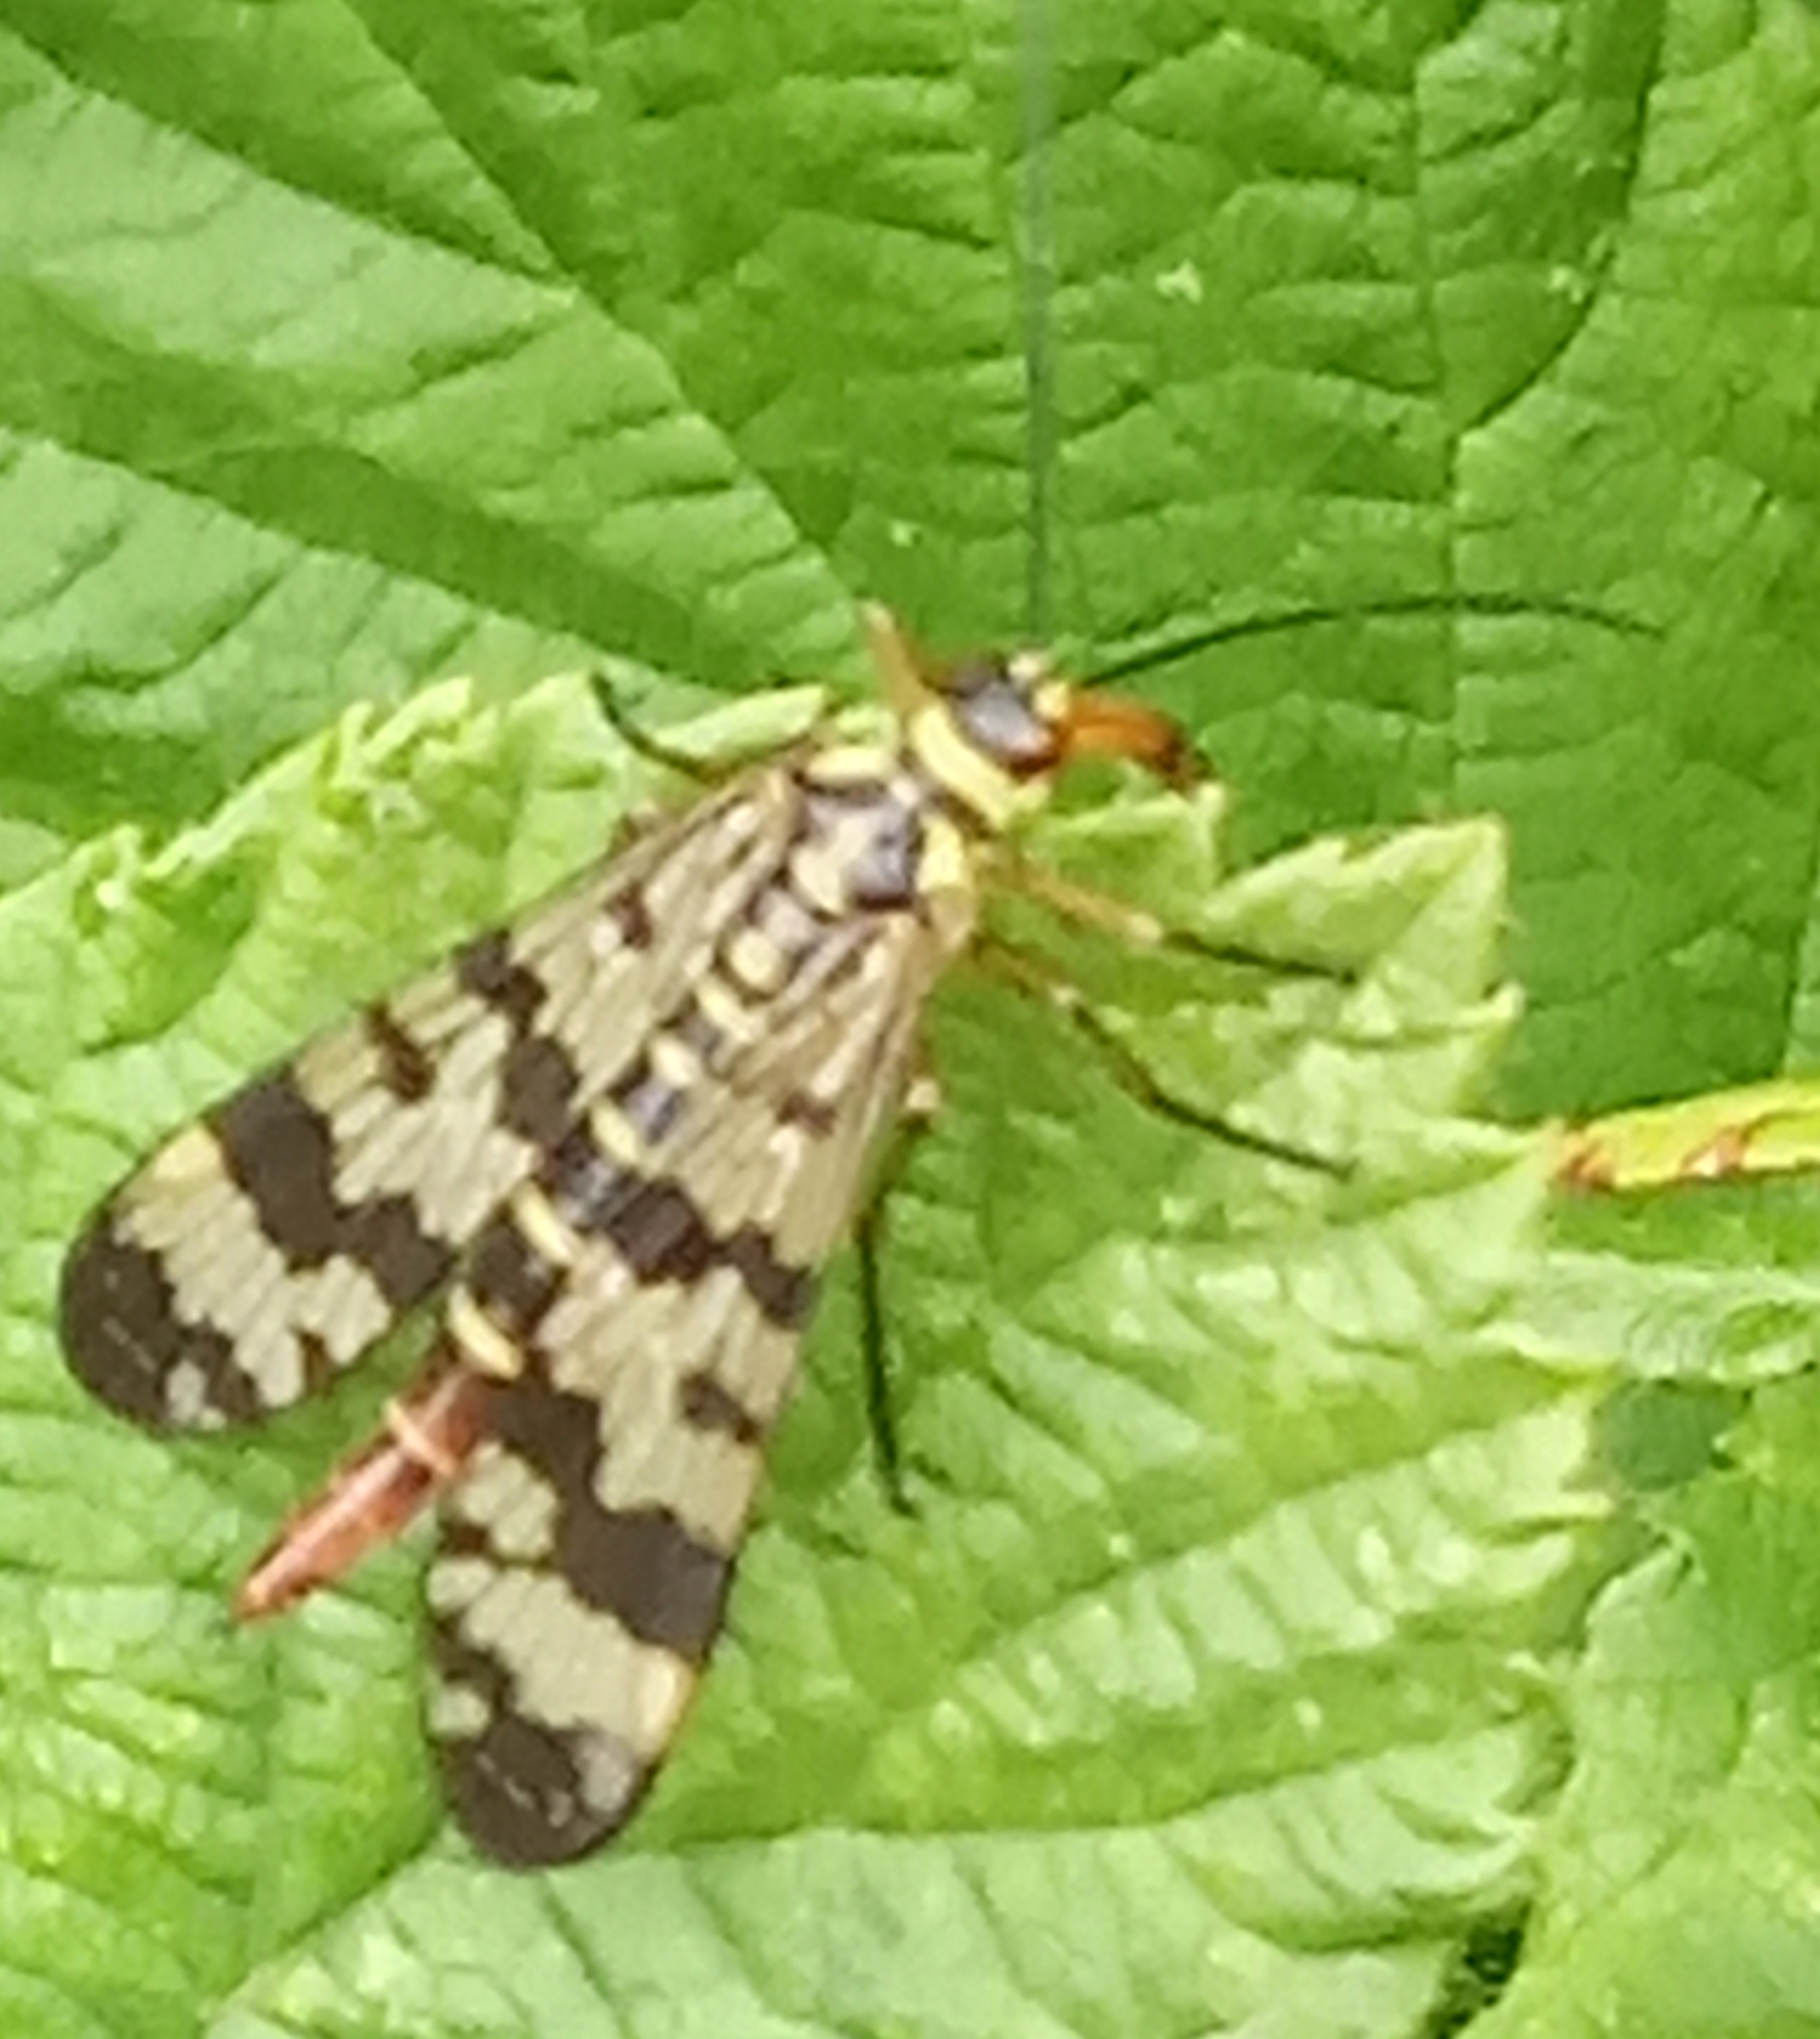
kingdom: Animalia
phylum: Arthropoda
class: Insecta
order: Mecoptera
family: Panorpidae
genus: Panorpa
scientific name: Panorpa communis
